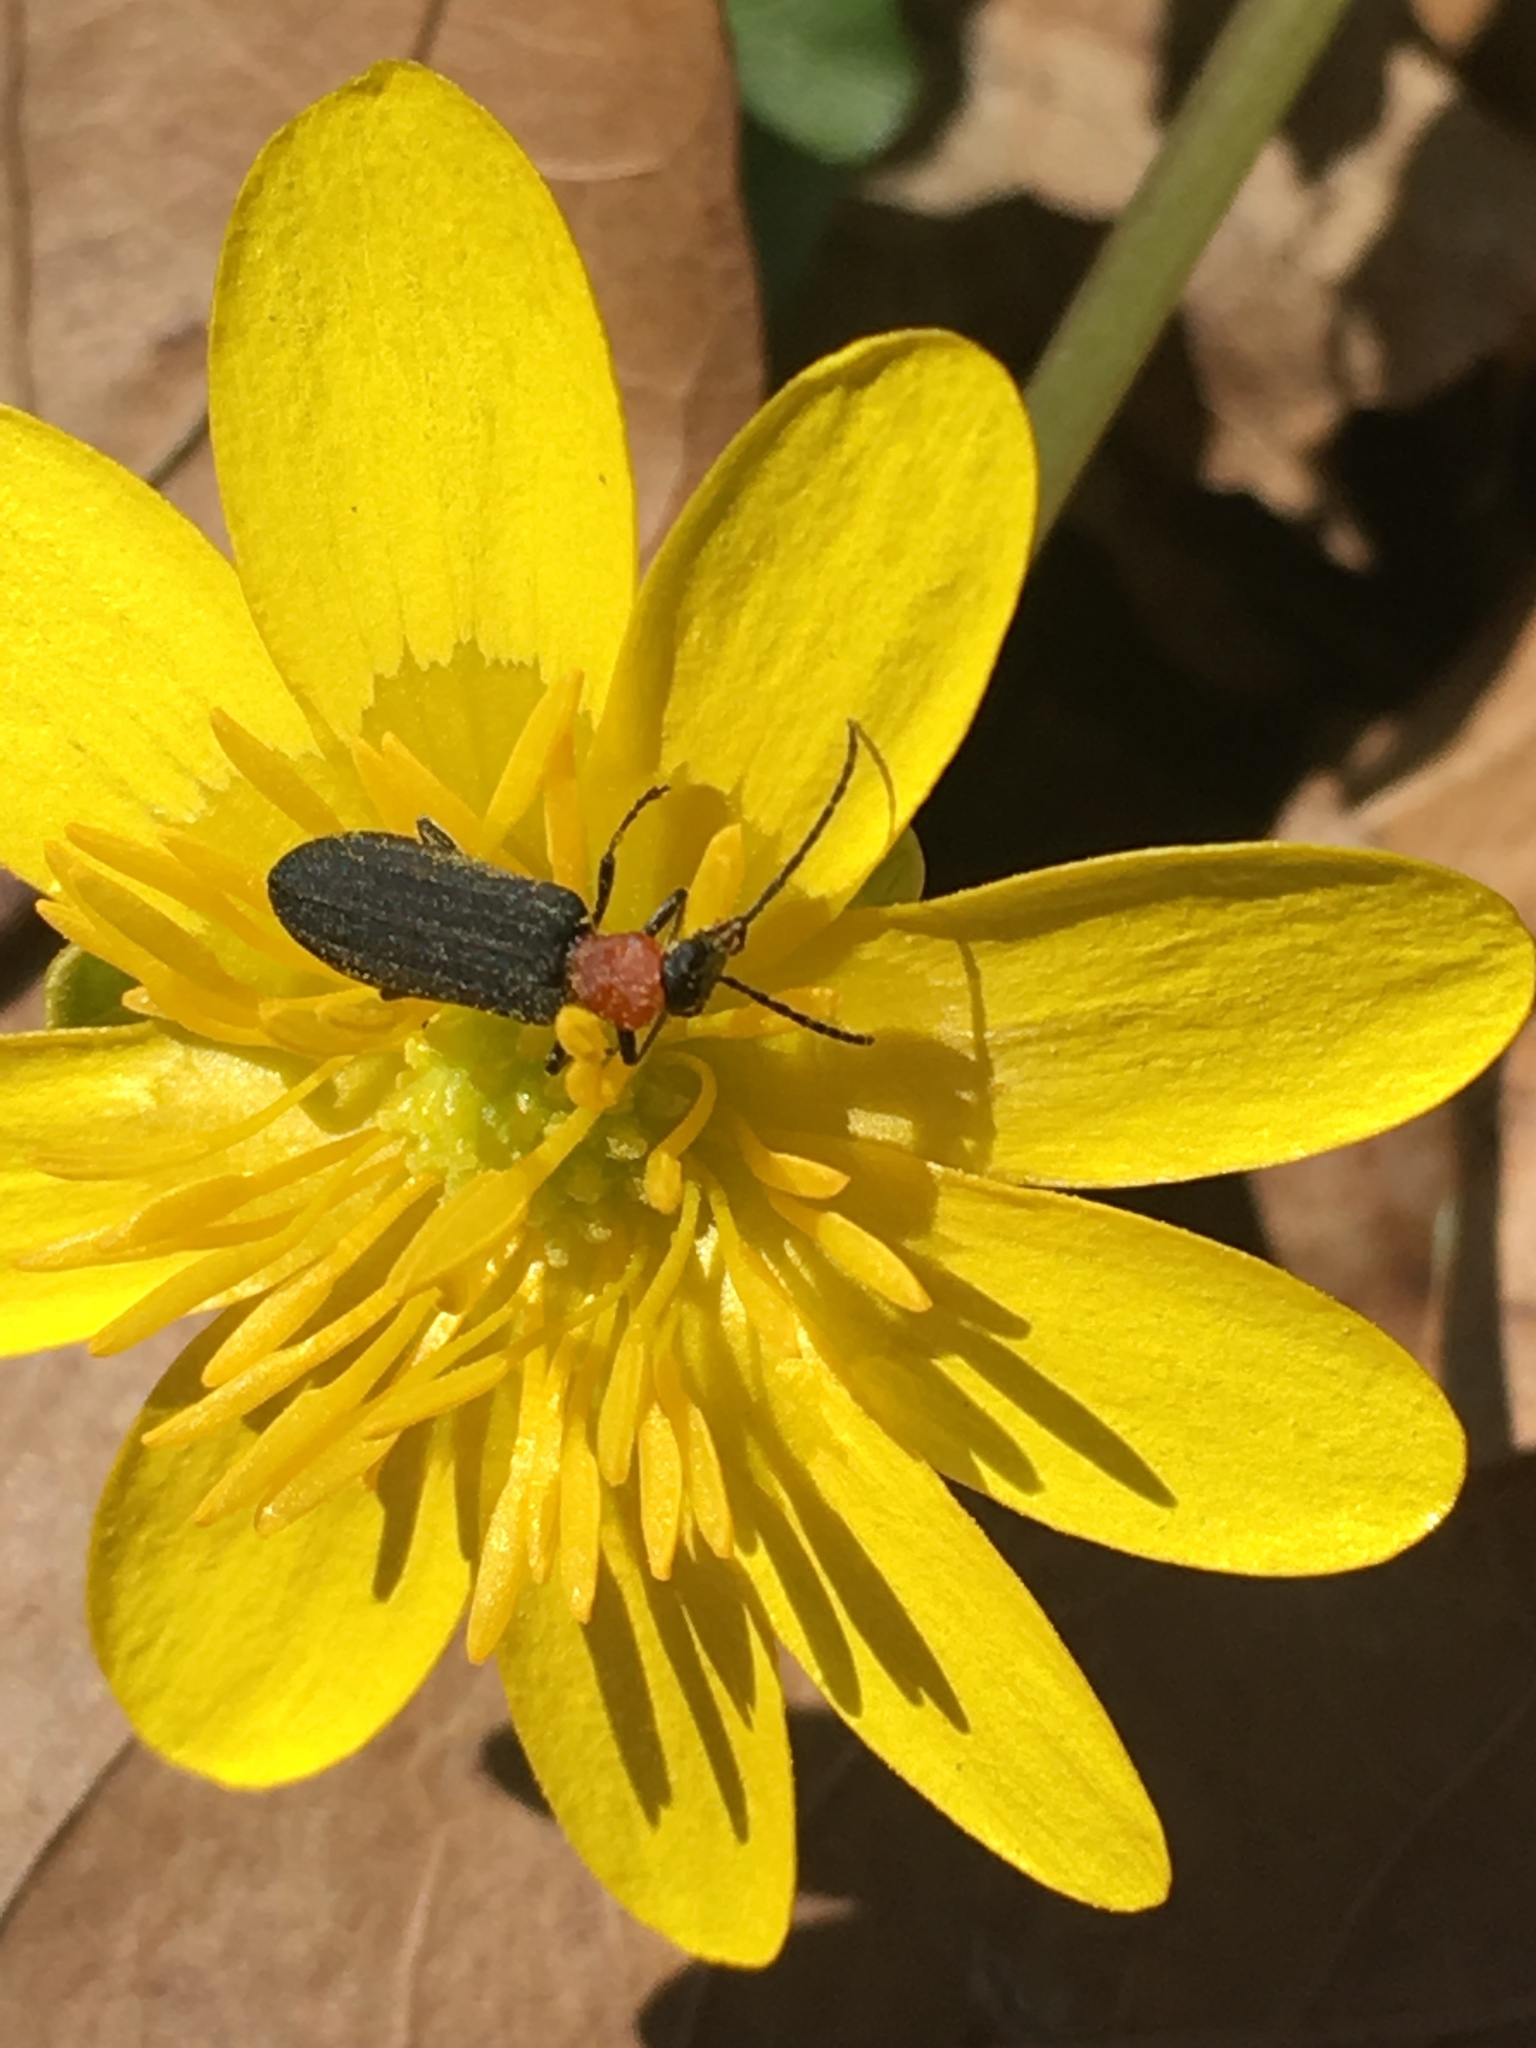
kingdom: Animalia
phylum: Arthropoda
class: Insecta
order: Coleoptera
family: Oedemeridae
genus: Ischnomera
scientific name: Ischnomera
